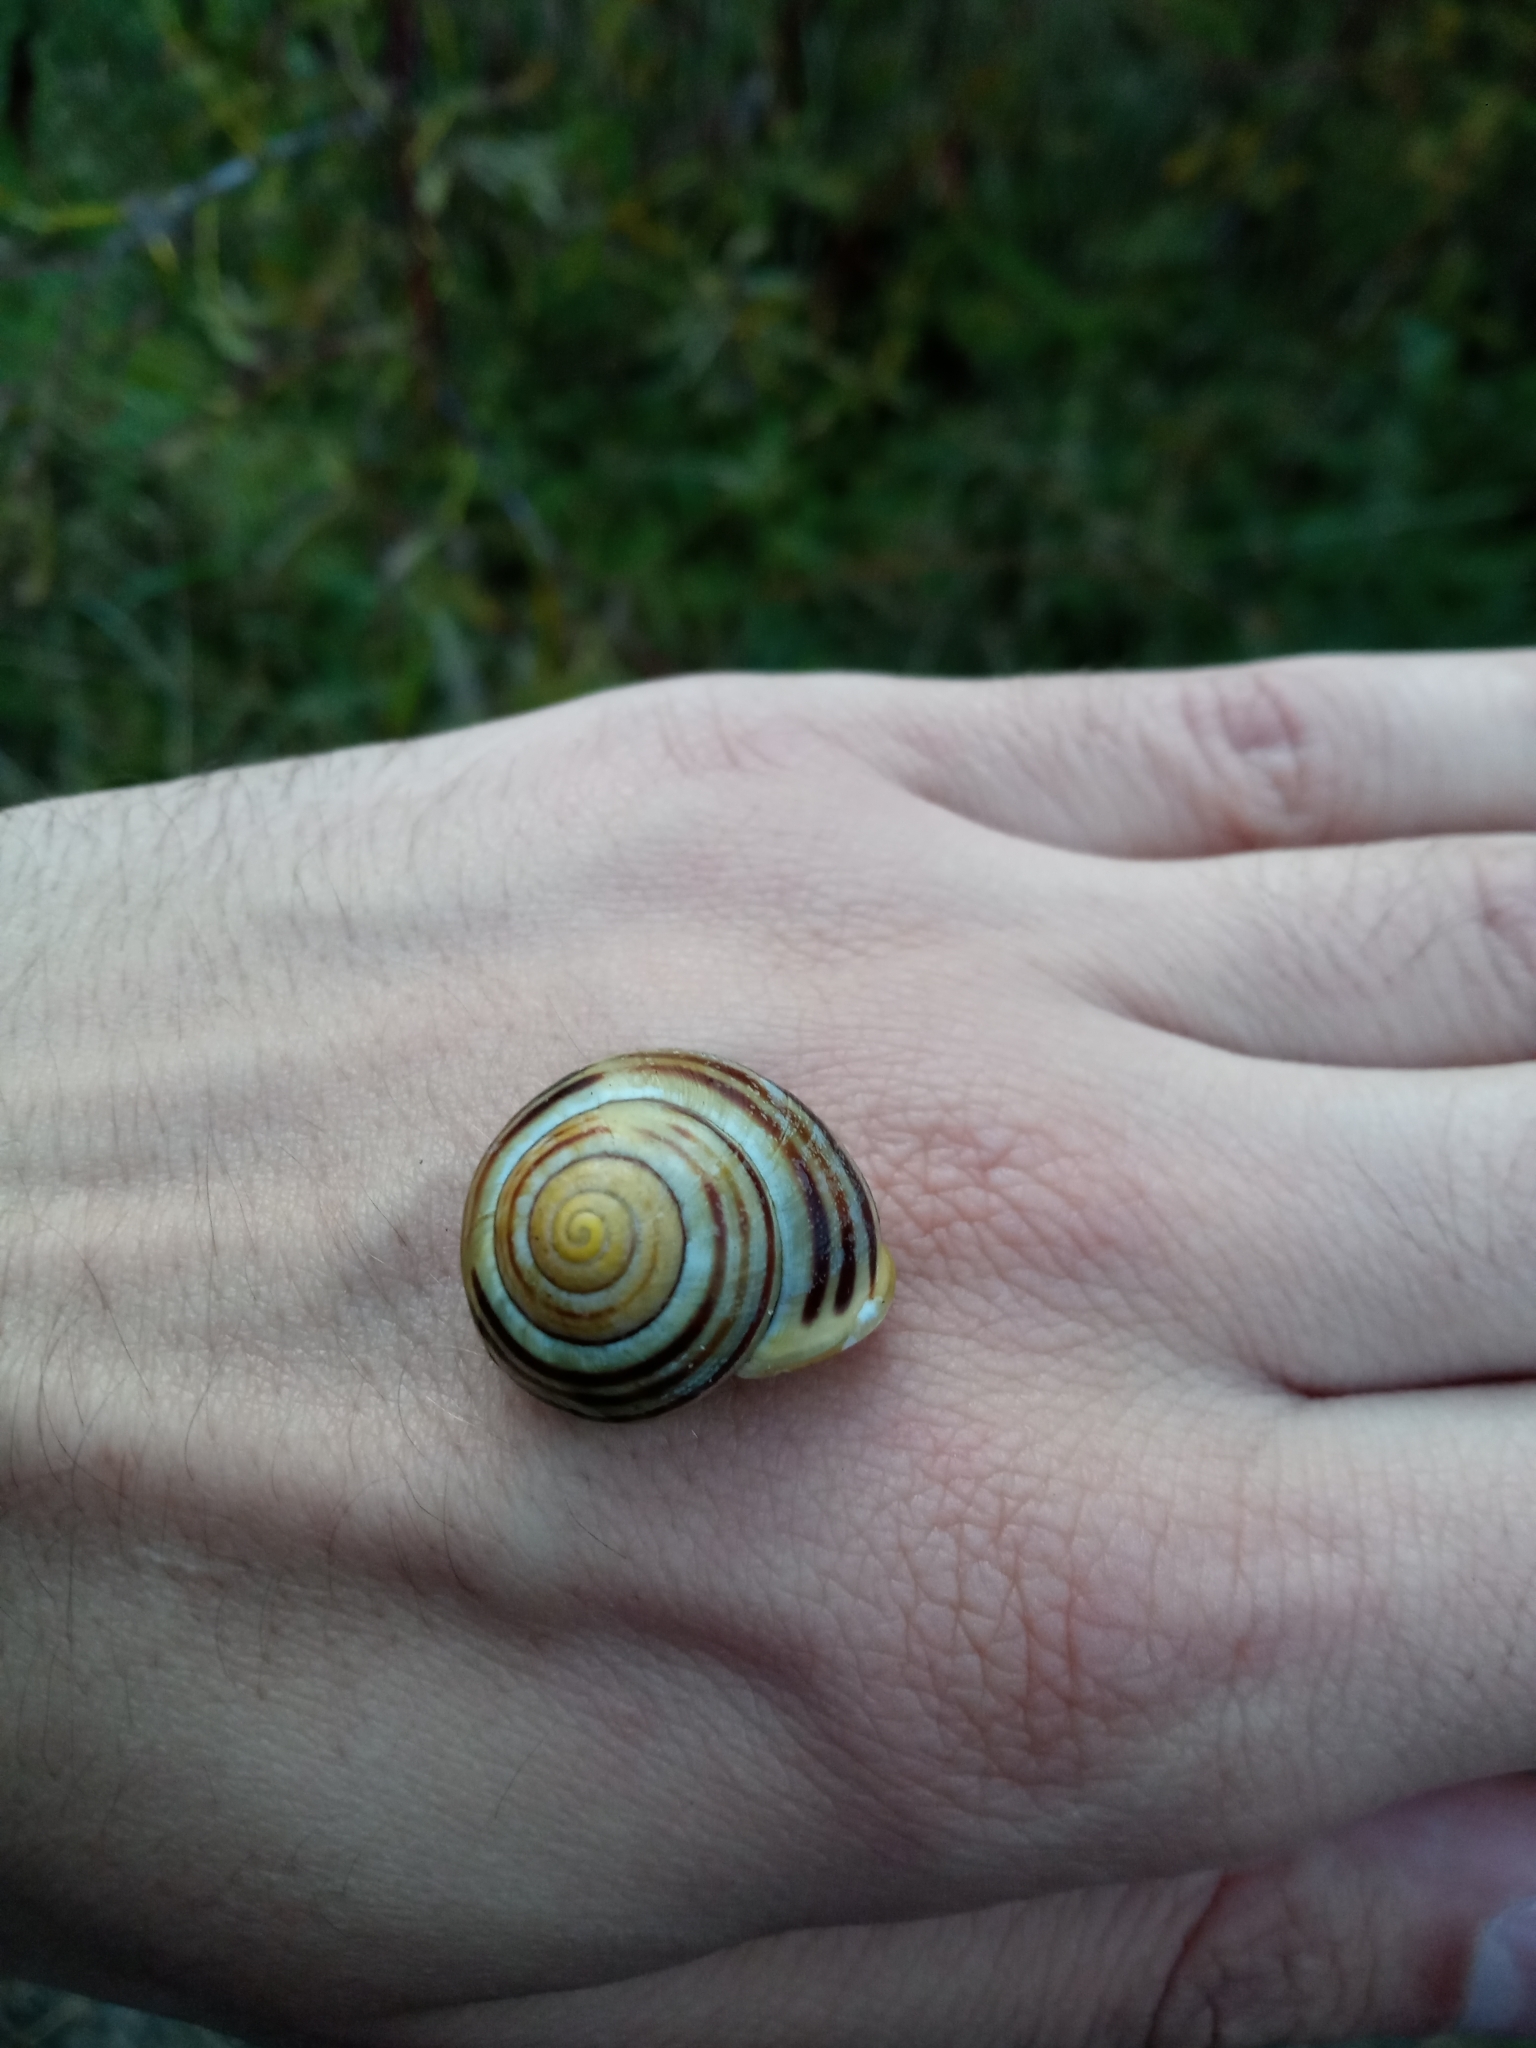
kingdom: Animalia
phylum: Mollusca
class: Gastropoda
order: Stylommatophora
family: Helicidae
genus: Cepaea
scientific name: Cepaea hortensis
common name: White-lip gardensnail
